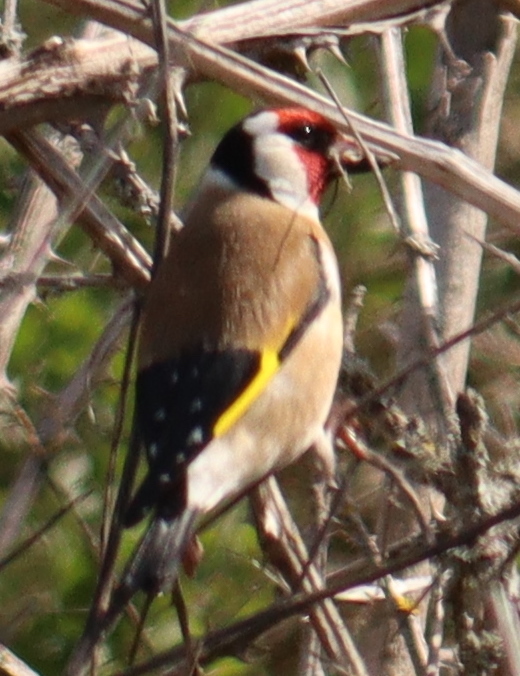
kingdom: Animalia
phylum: Chordata
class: Aves
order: Passeriformes
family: Fringillidae
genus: Carduelis
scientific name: Carduelis carduelis
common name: European goldfinch
